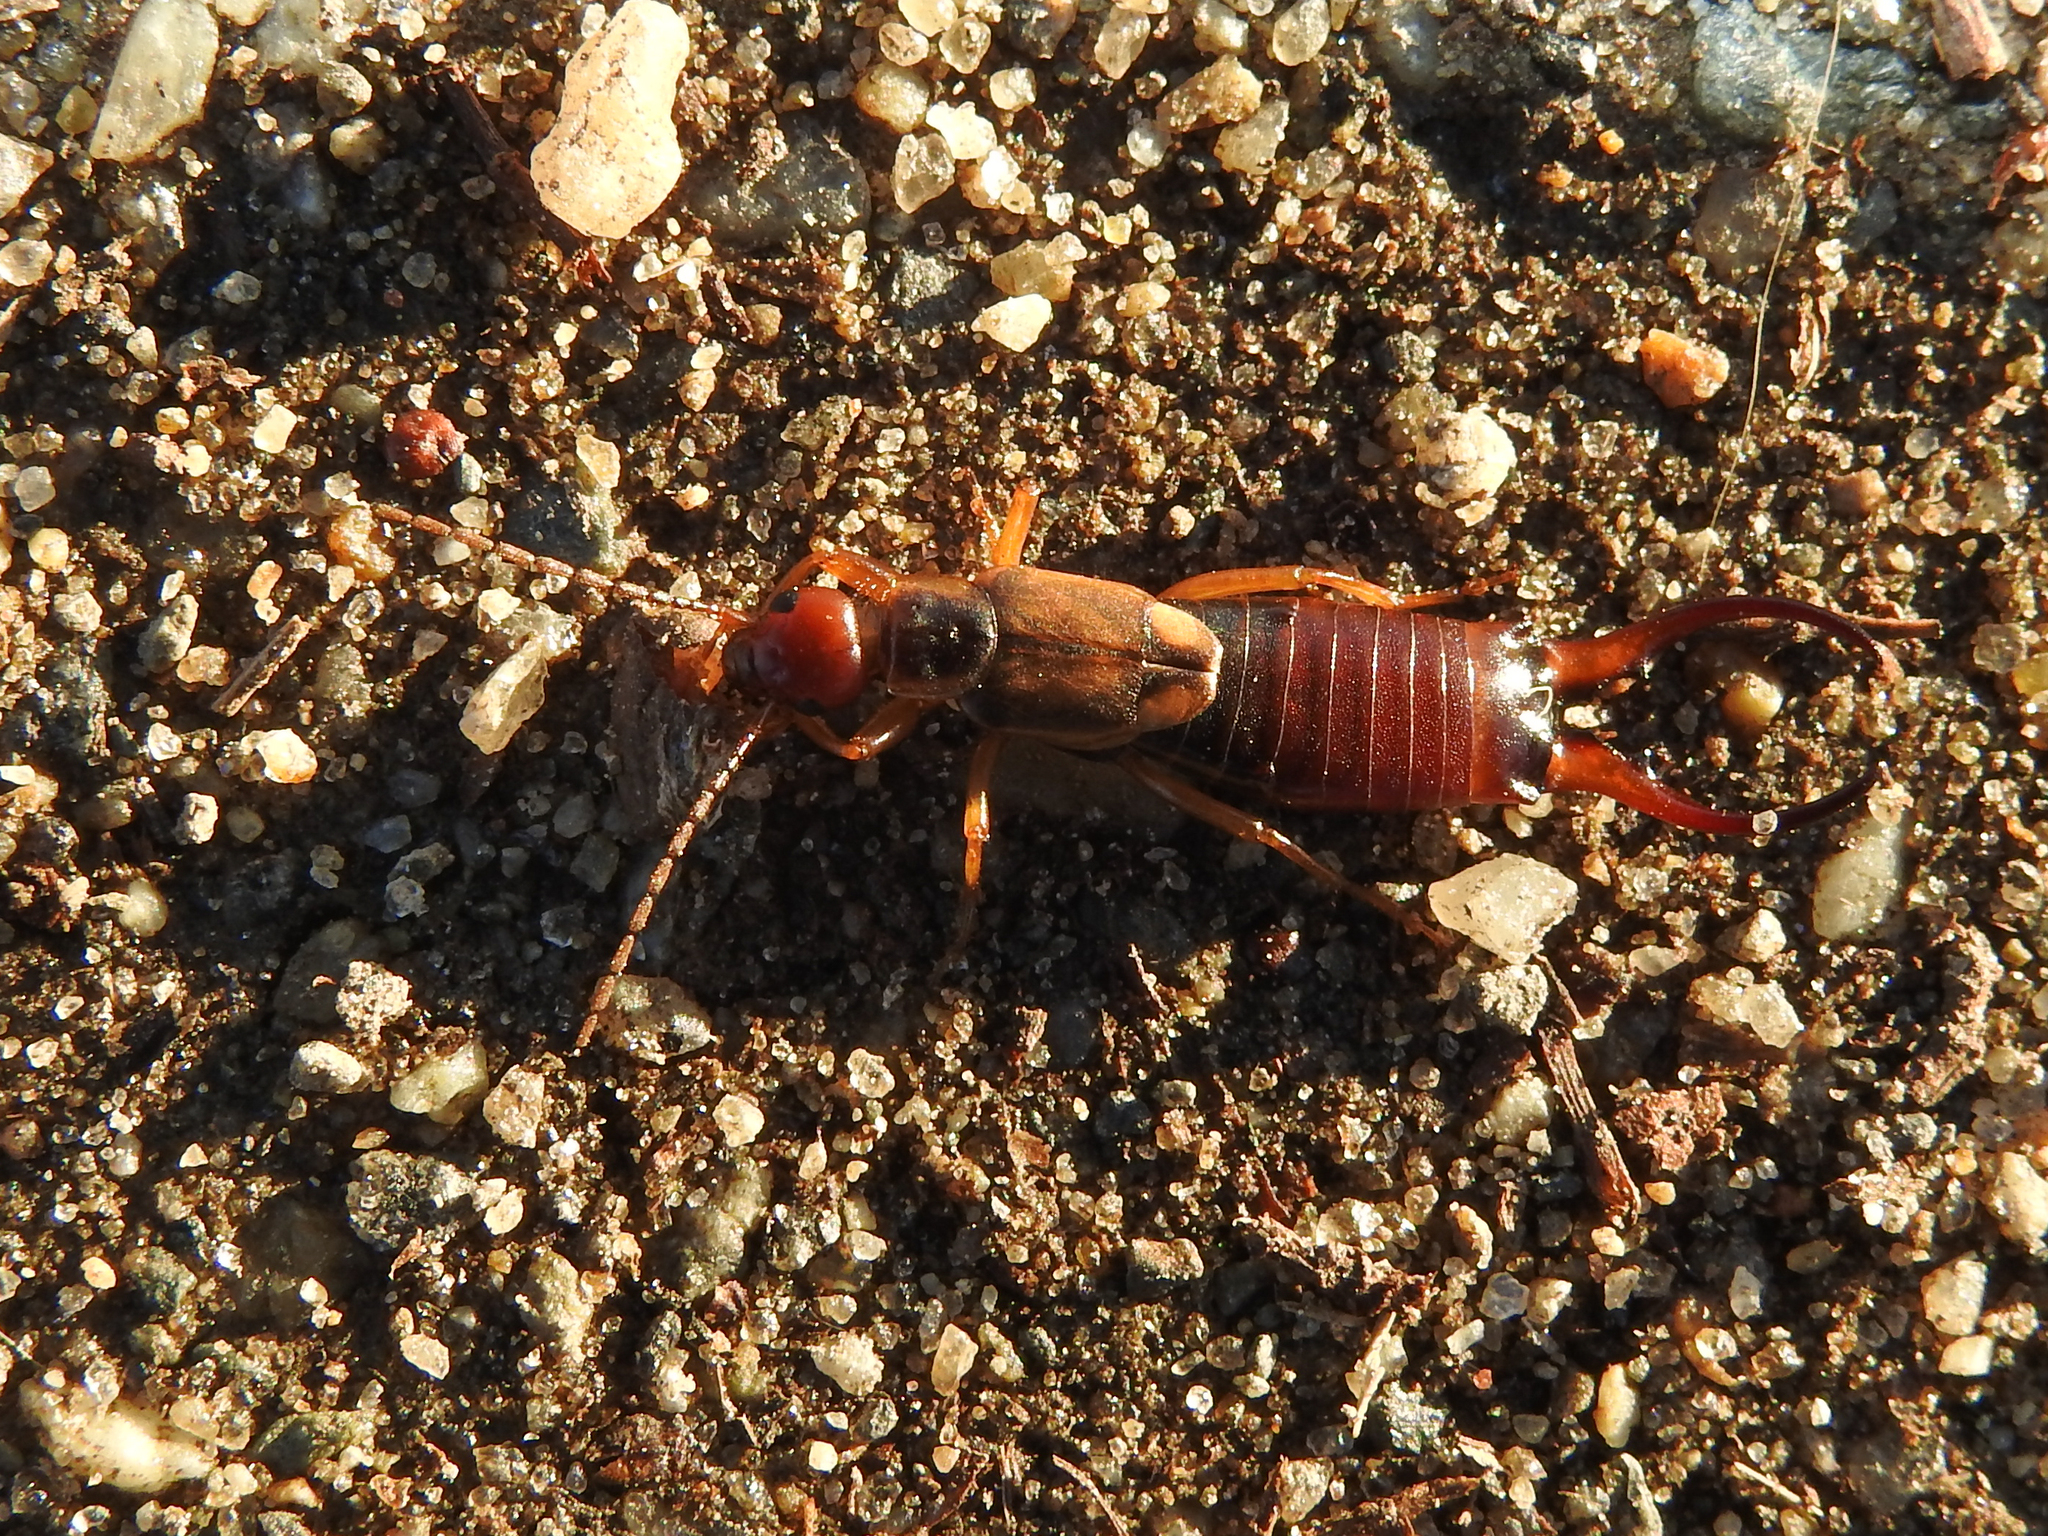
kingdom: Animalia
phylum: Arthropoda
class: Insecta
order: Dermaptera
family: Forficulidae
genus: Forficula
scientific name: Forficula
